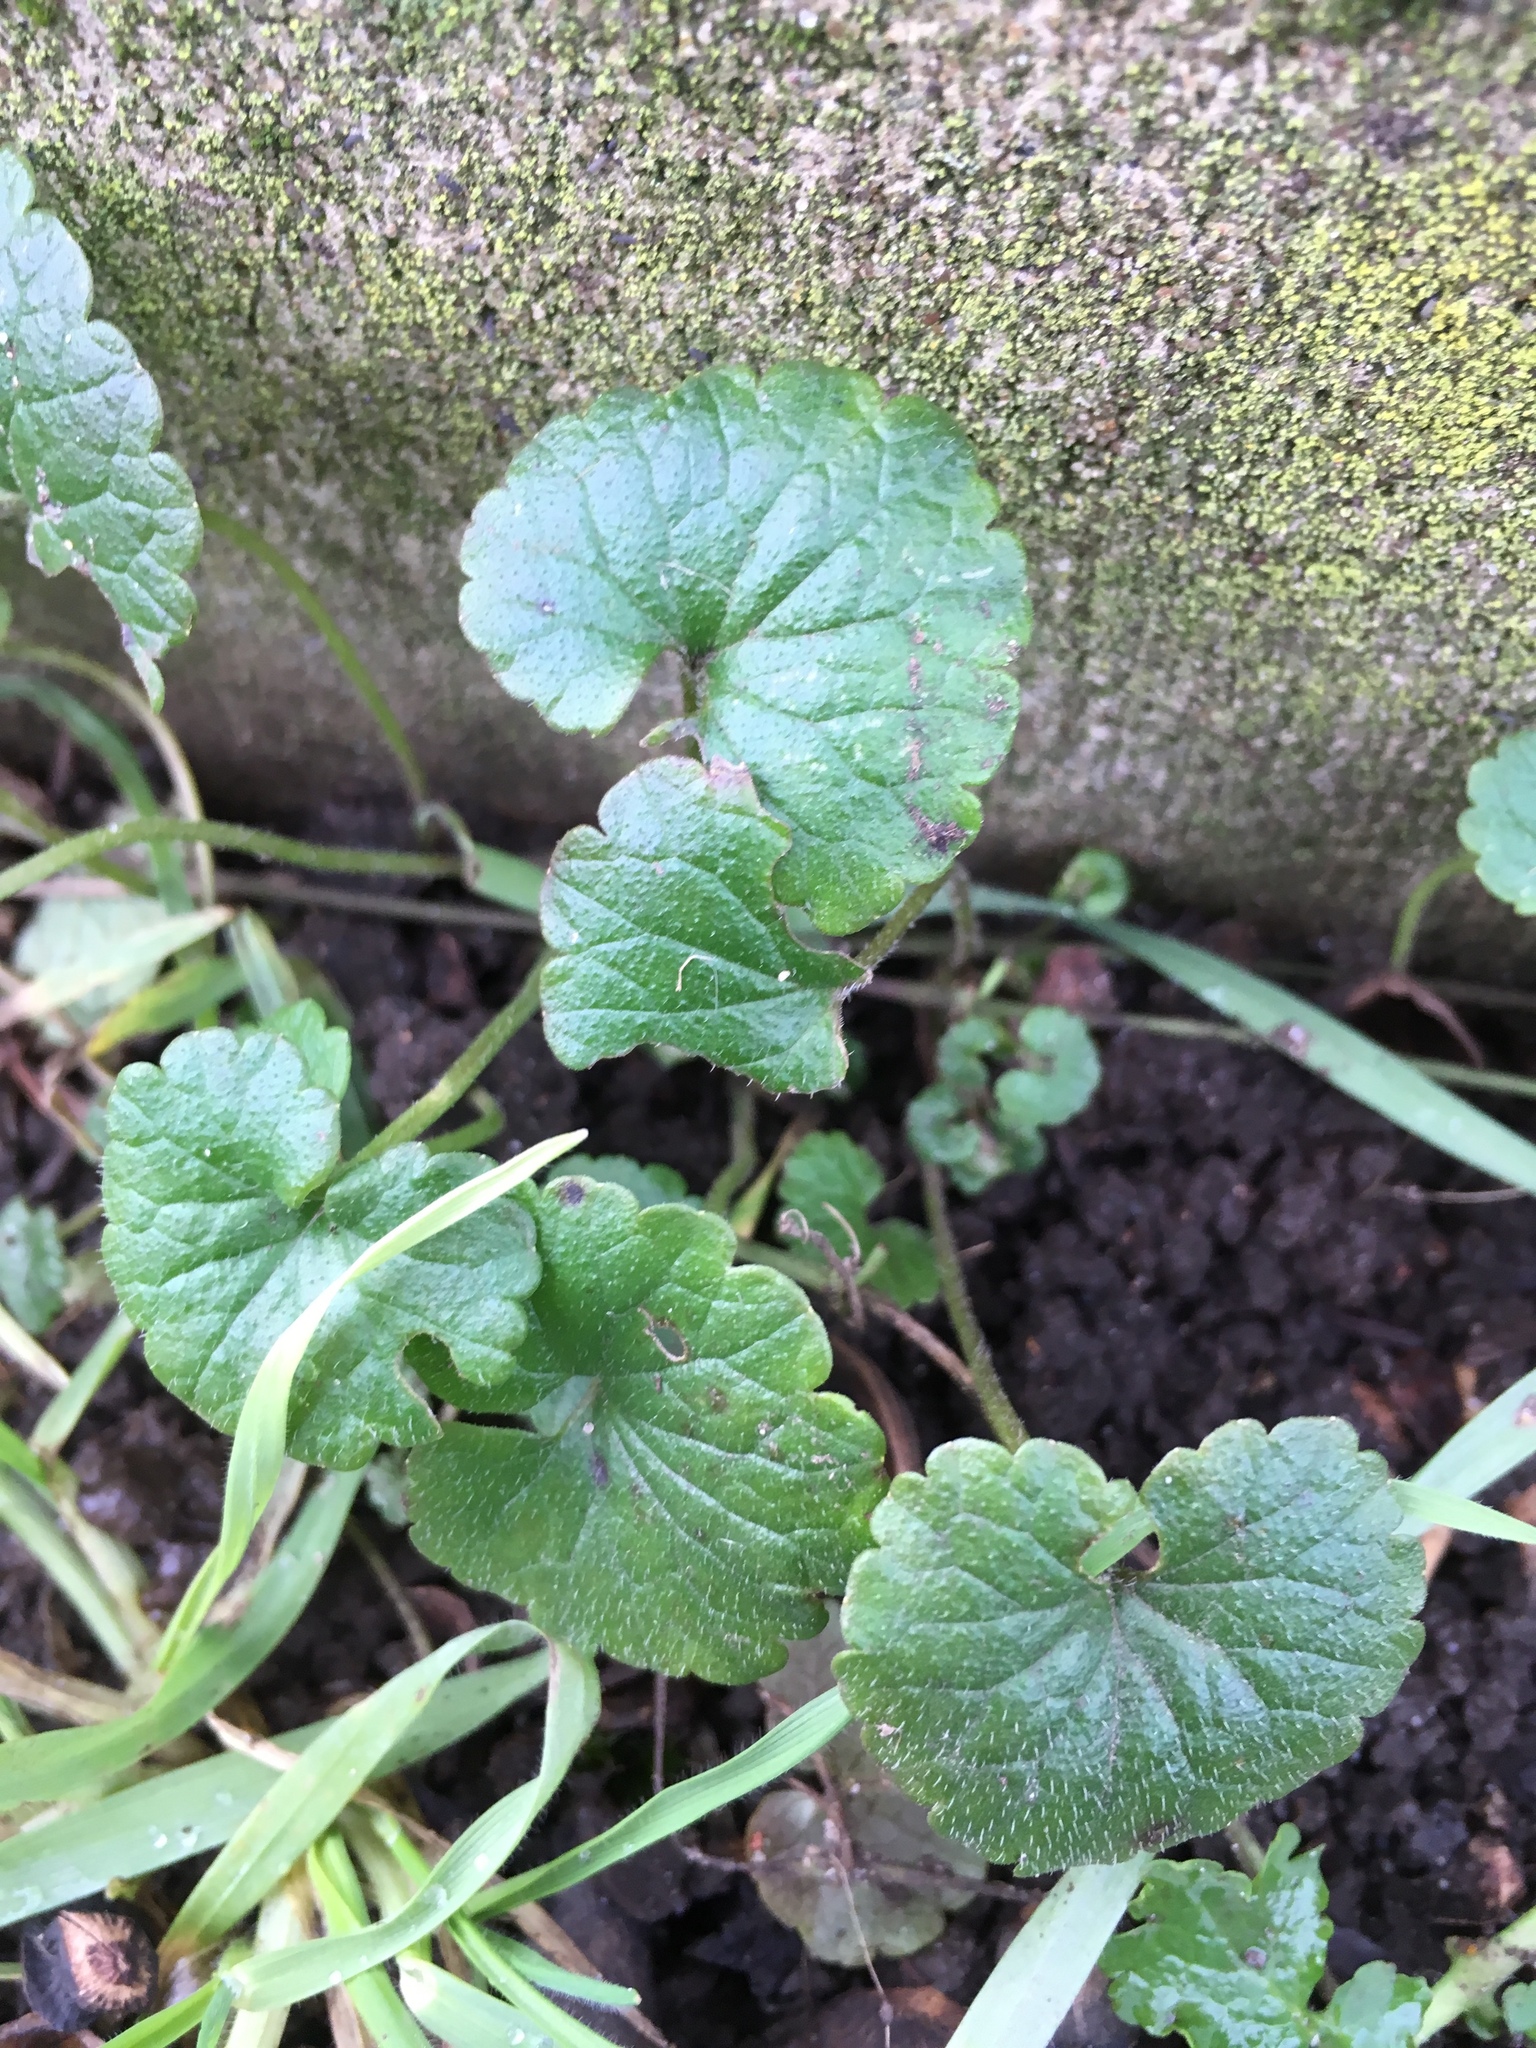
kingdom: Plantae
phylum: Tracheophyta
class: Magnoliopsida
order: Lamiales
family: Lamiaceae
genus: Glechoma
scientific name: Glechoma hederacea
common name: Ground ivy
